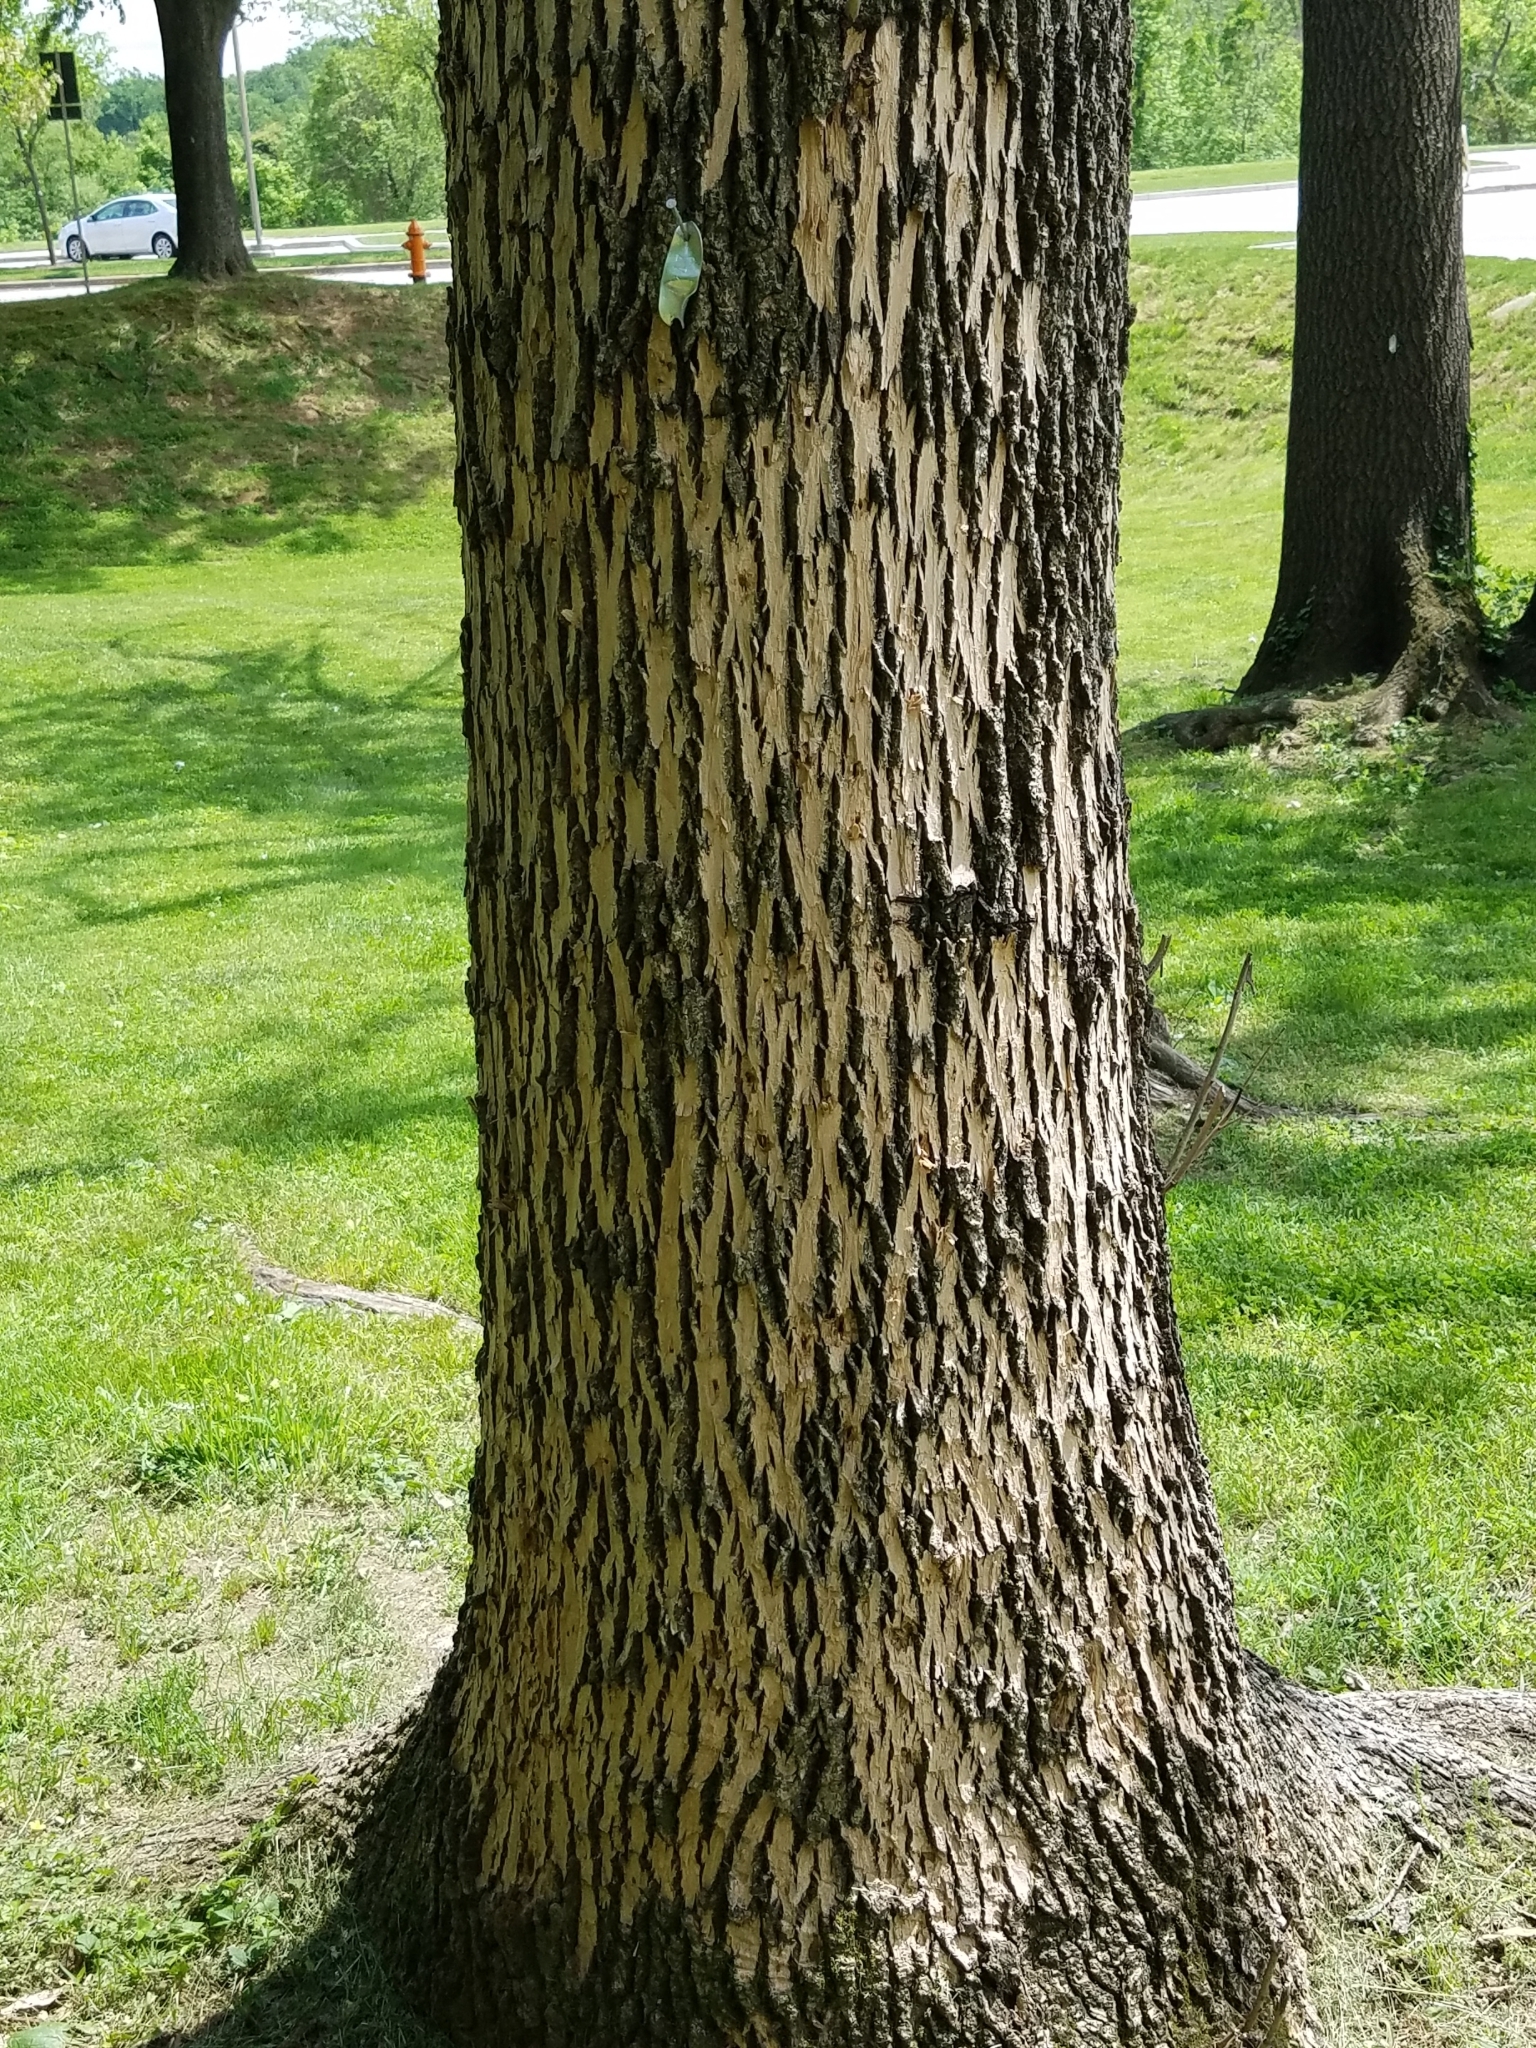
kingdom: Animalia
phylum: Arthropoda
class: Insecta
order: Coleoptera
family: Buprestidae
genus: Agrilus
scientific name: Agrilus planipennis
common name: Emerald ash borer
